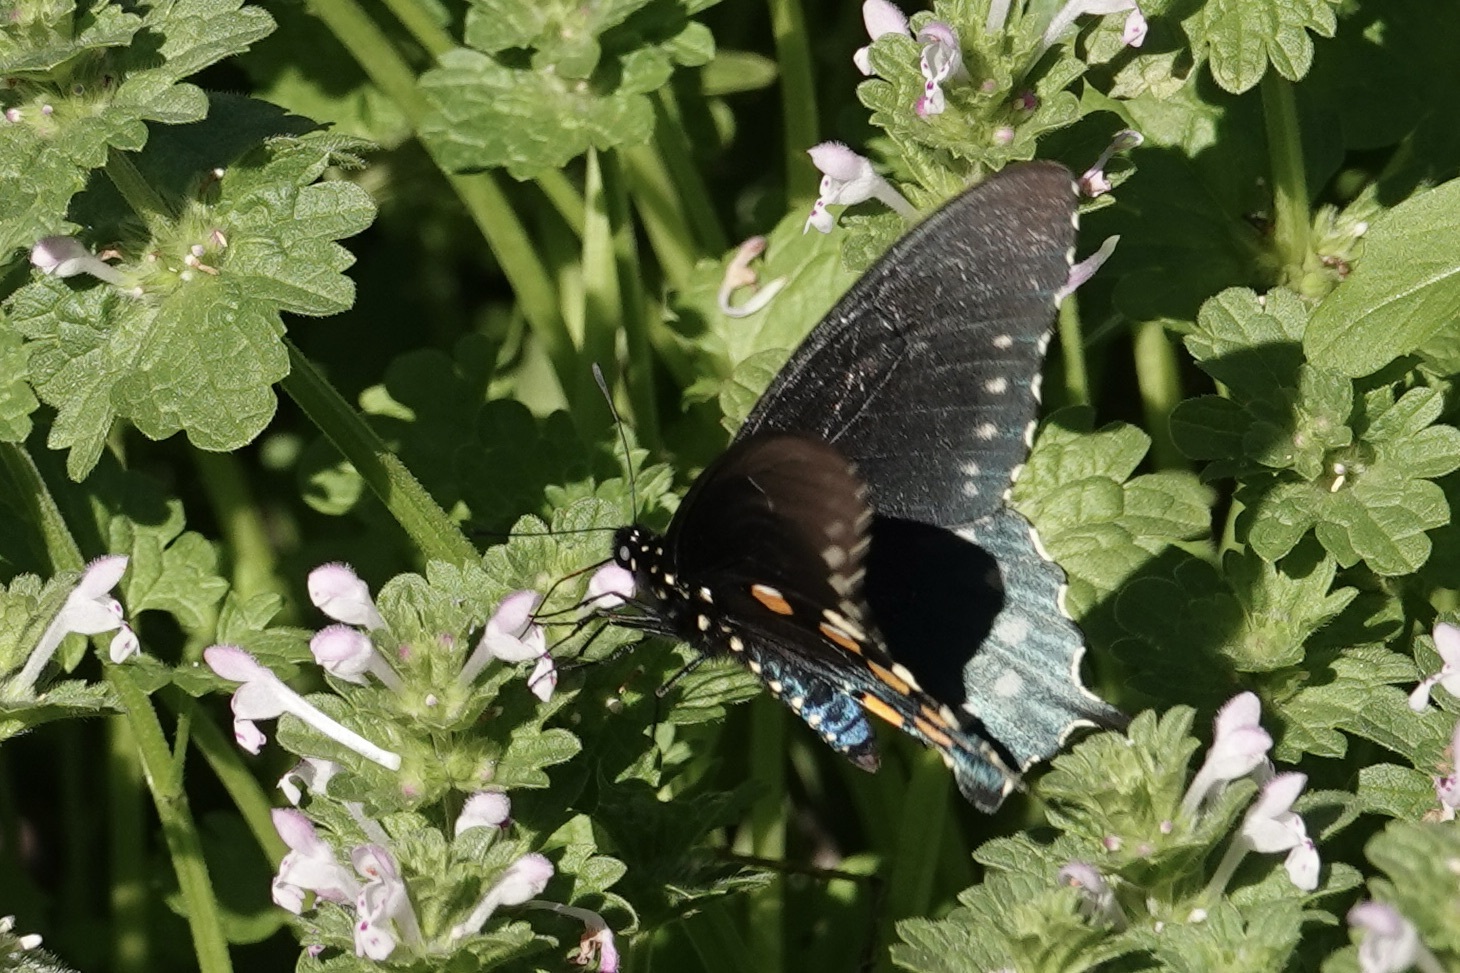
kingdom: Animalia
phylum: Arthropoda
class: Insecta
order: Lepidoptera
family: Papilionidae
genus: Battus
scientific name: Battus philenor
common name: Pipevine swallowtail
